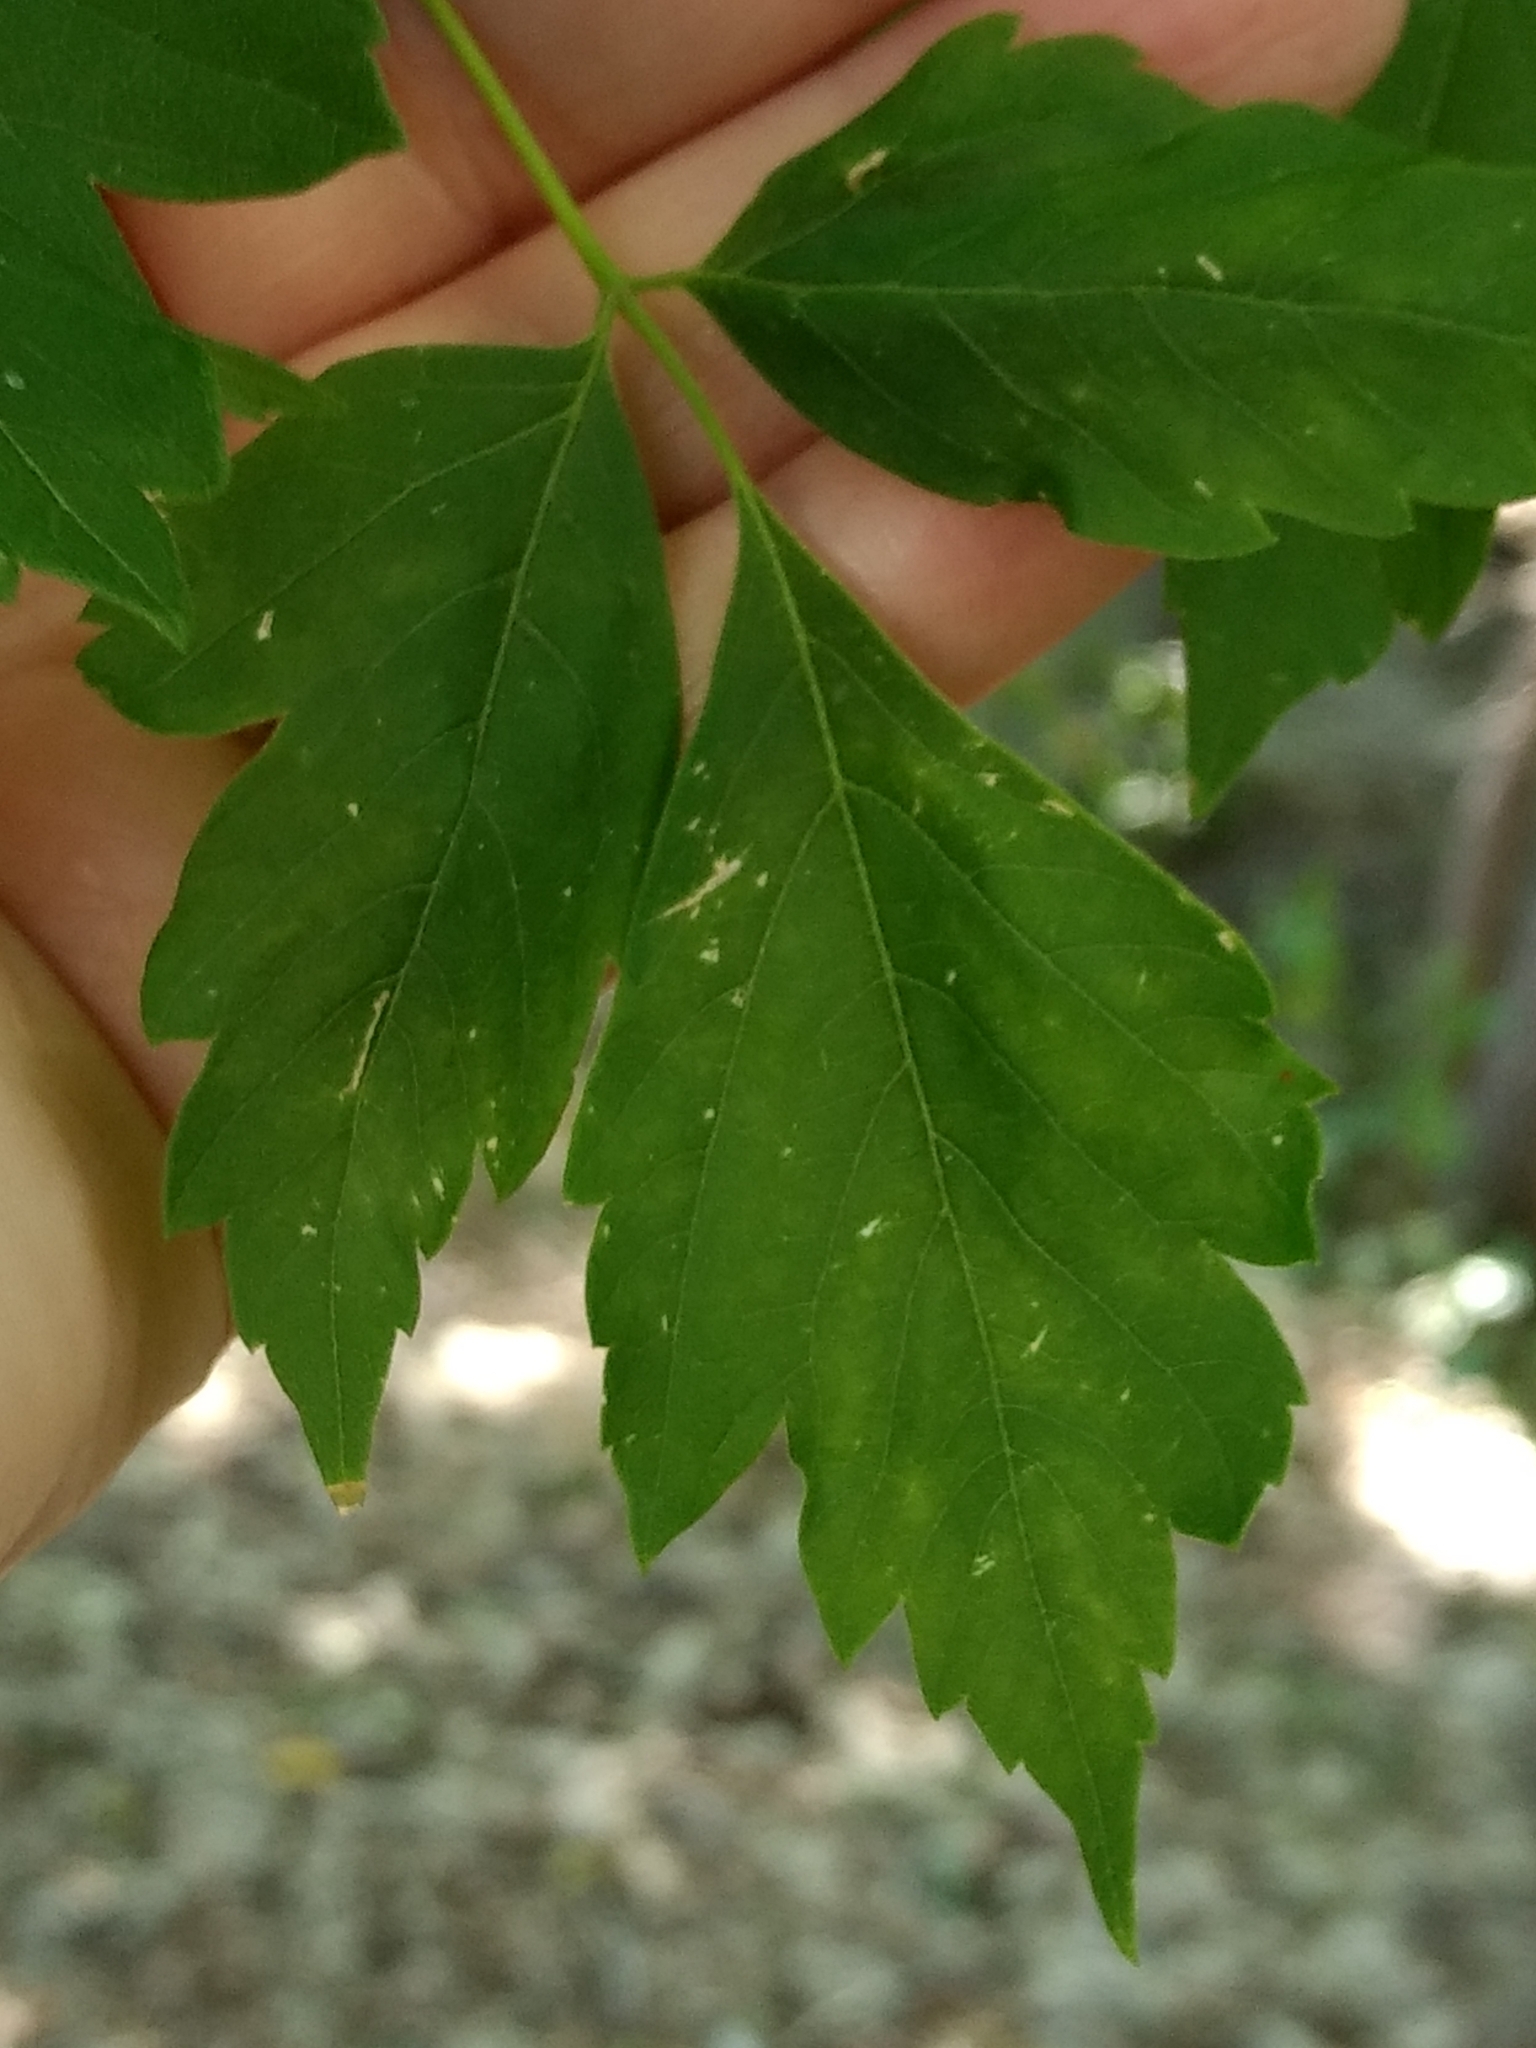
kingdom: Plantae
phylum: Tracheophyta
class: Magnoliopsida
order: Sapindales
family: Sapindaceae
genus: Acer
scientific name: Acer negundo
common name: Ashleaf maple
